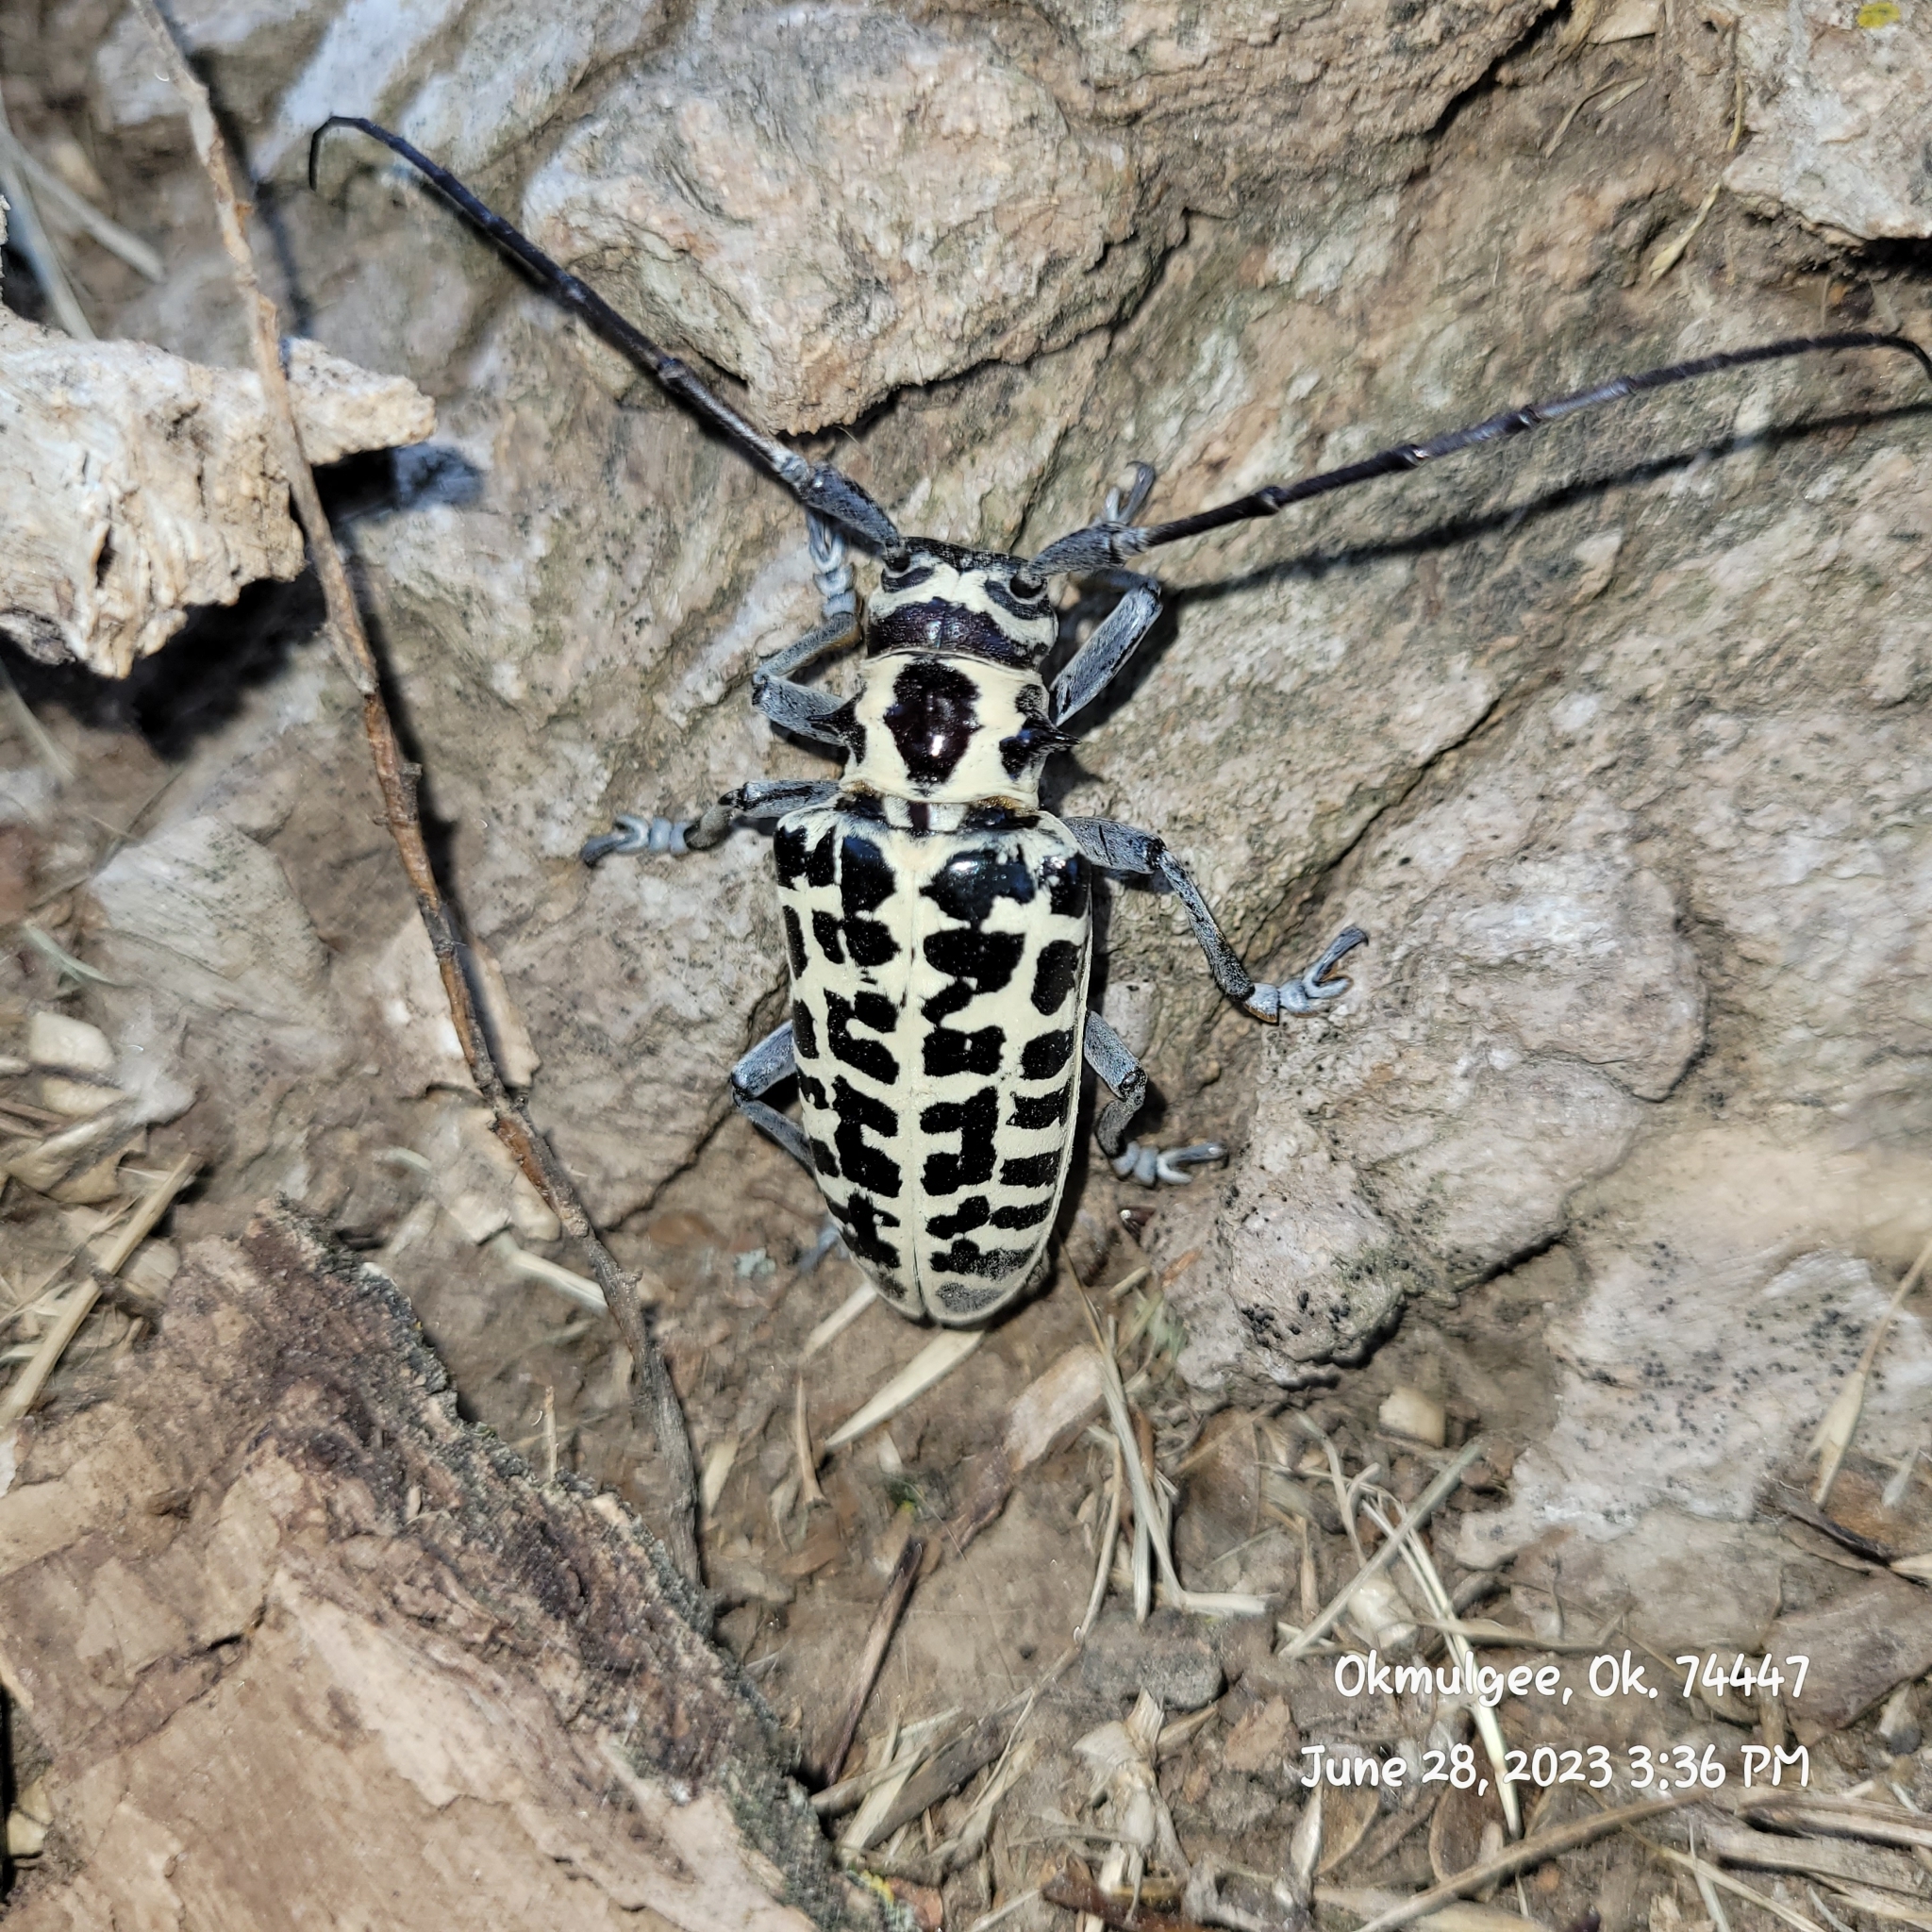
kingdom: Animalia
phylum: Arthropoda
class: Insecta
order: Coleoptera
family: Cerambycidae
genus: Plectrodera
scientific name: Plectrodera scalator
